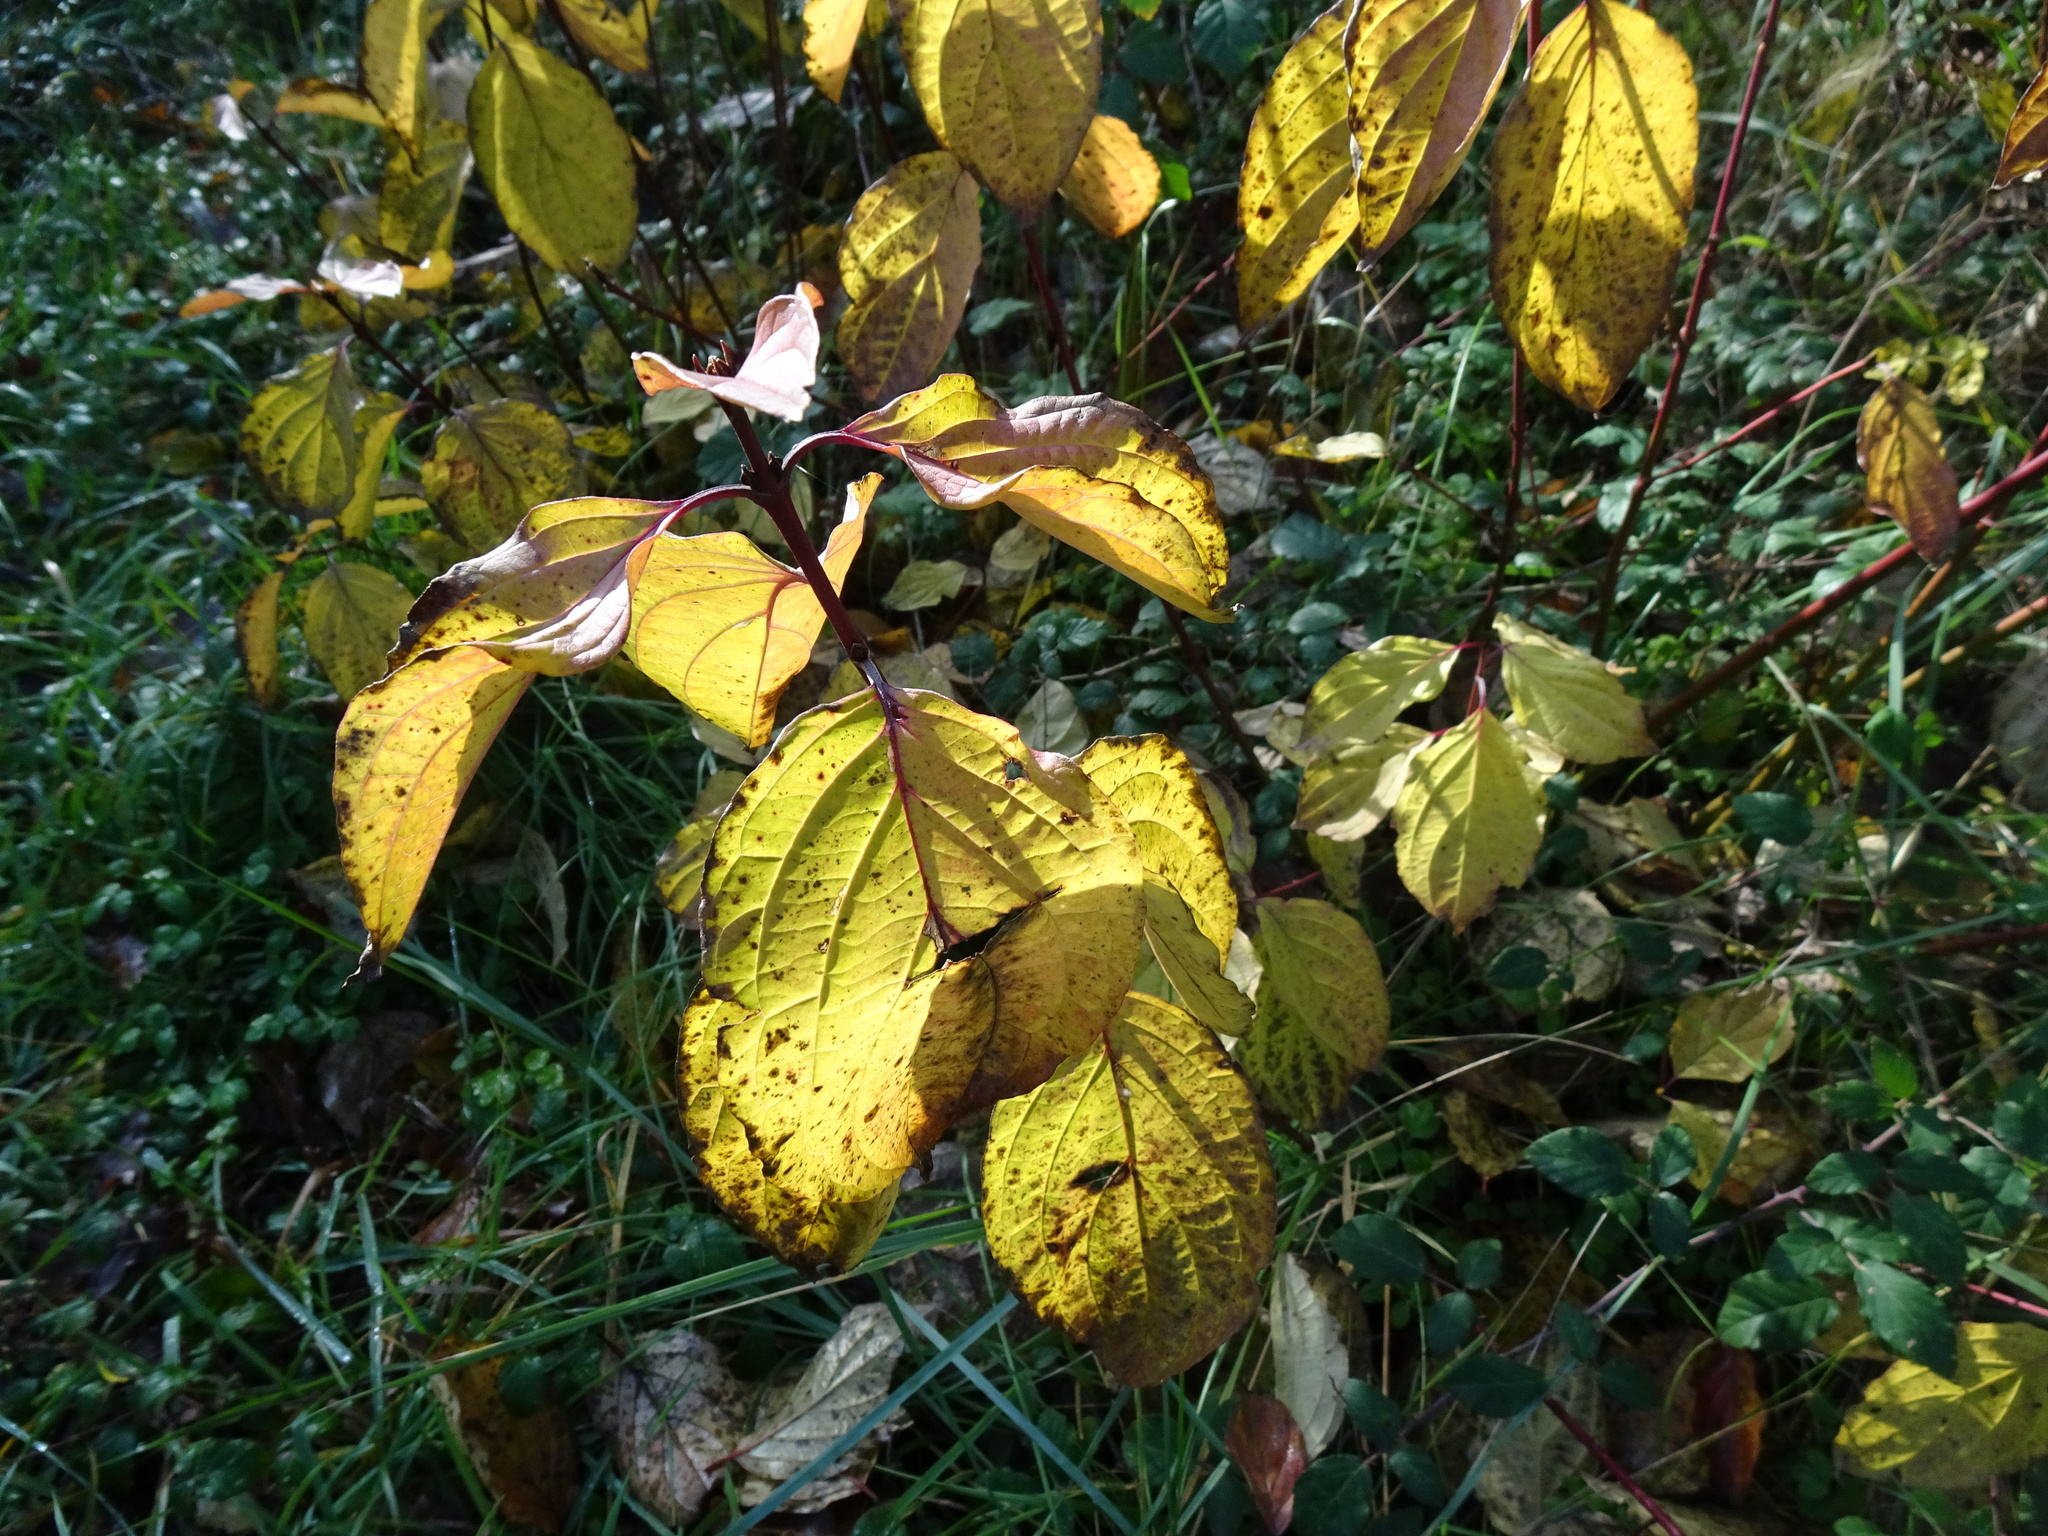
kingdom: Plantae
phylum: Tracheophyta
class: Magnoliopsida
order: Cornales
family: Cornaceae
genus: Cornus
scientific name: Cornus sanguinea
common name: Dogwood
